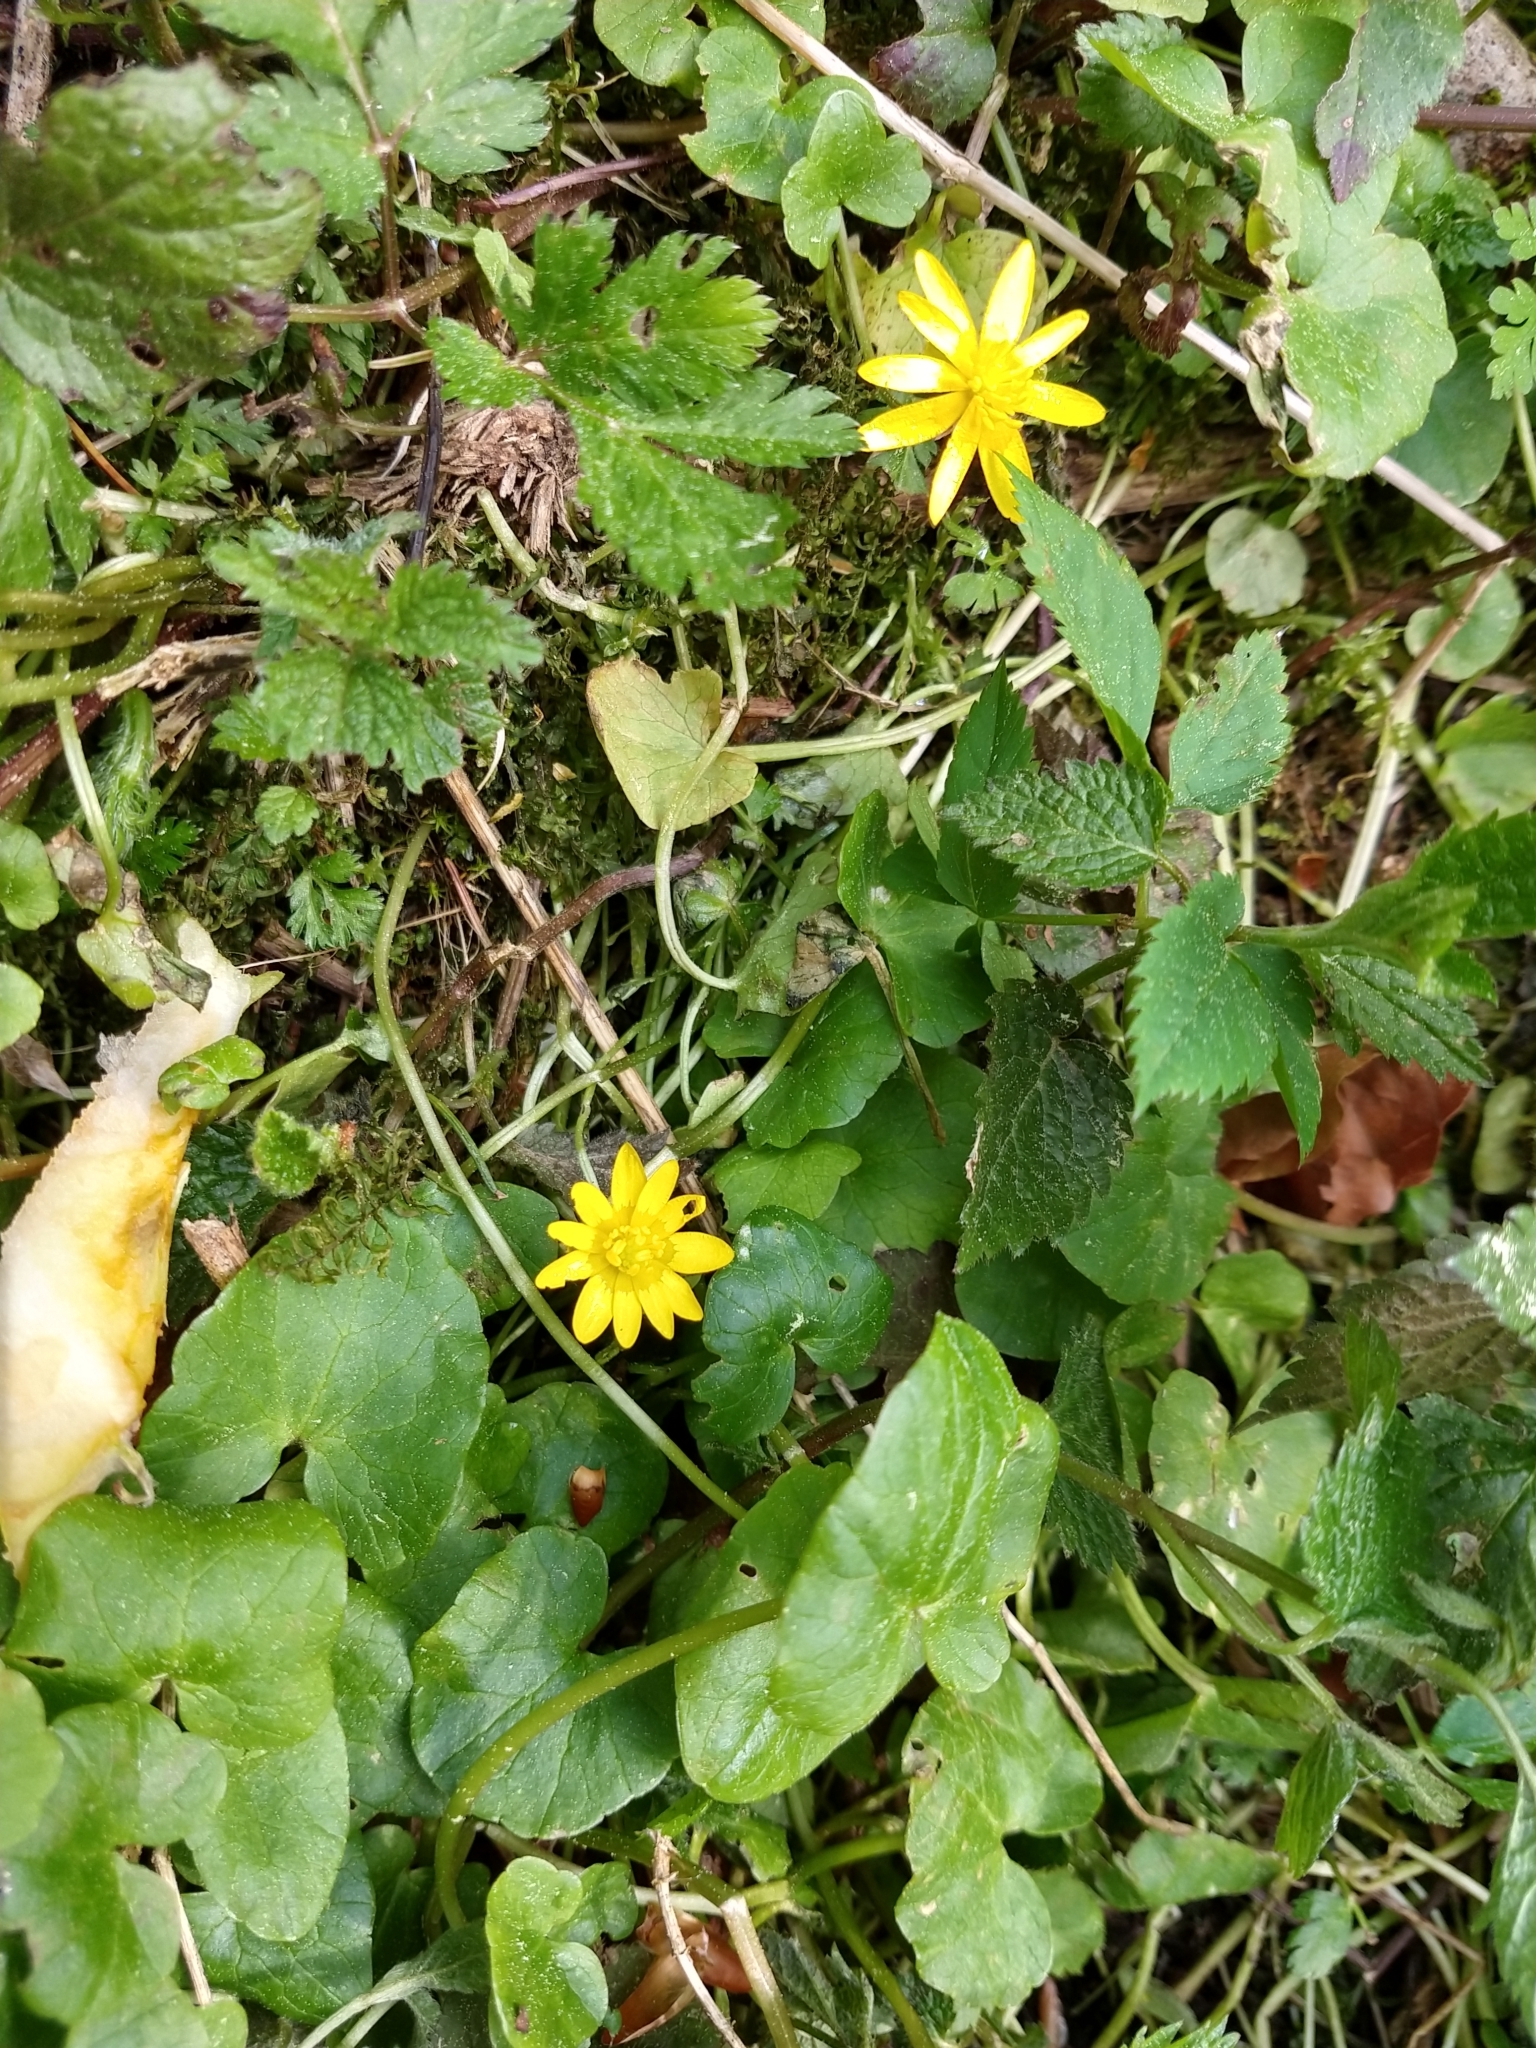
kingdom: Plantae
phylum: Tracheophyta
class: Magnoliopsida
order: Ranunculales
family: Ranunculaceae
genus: Ficaria
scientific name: Ficaria verna
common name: Lesser celandine
